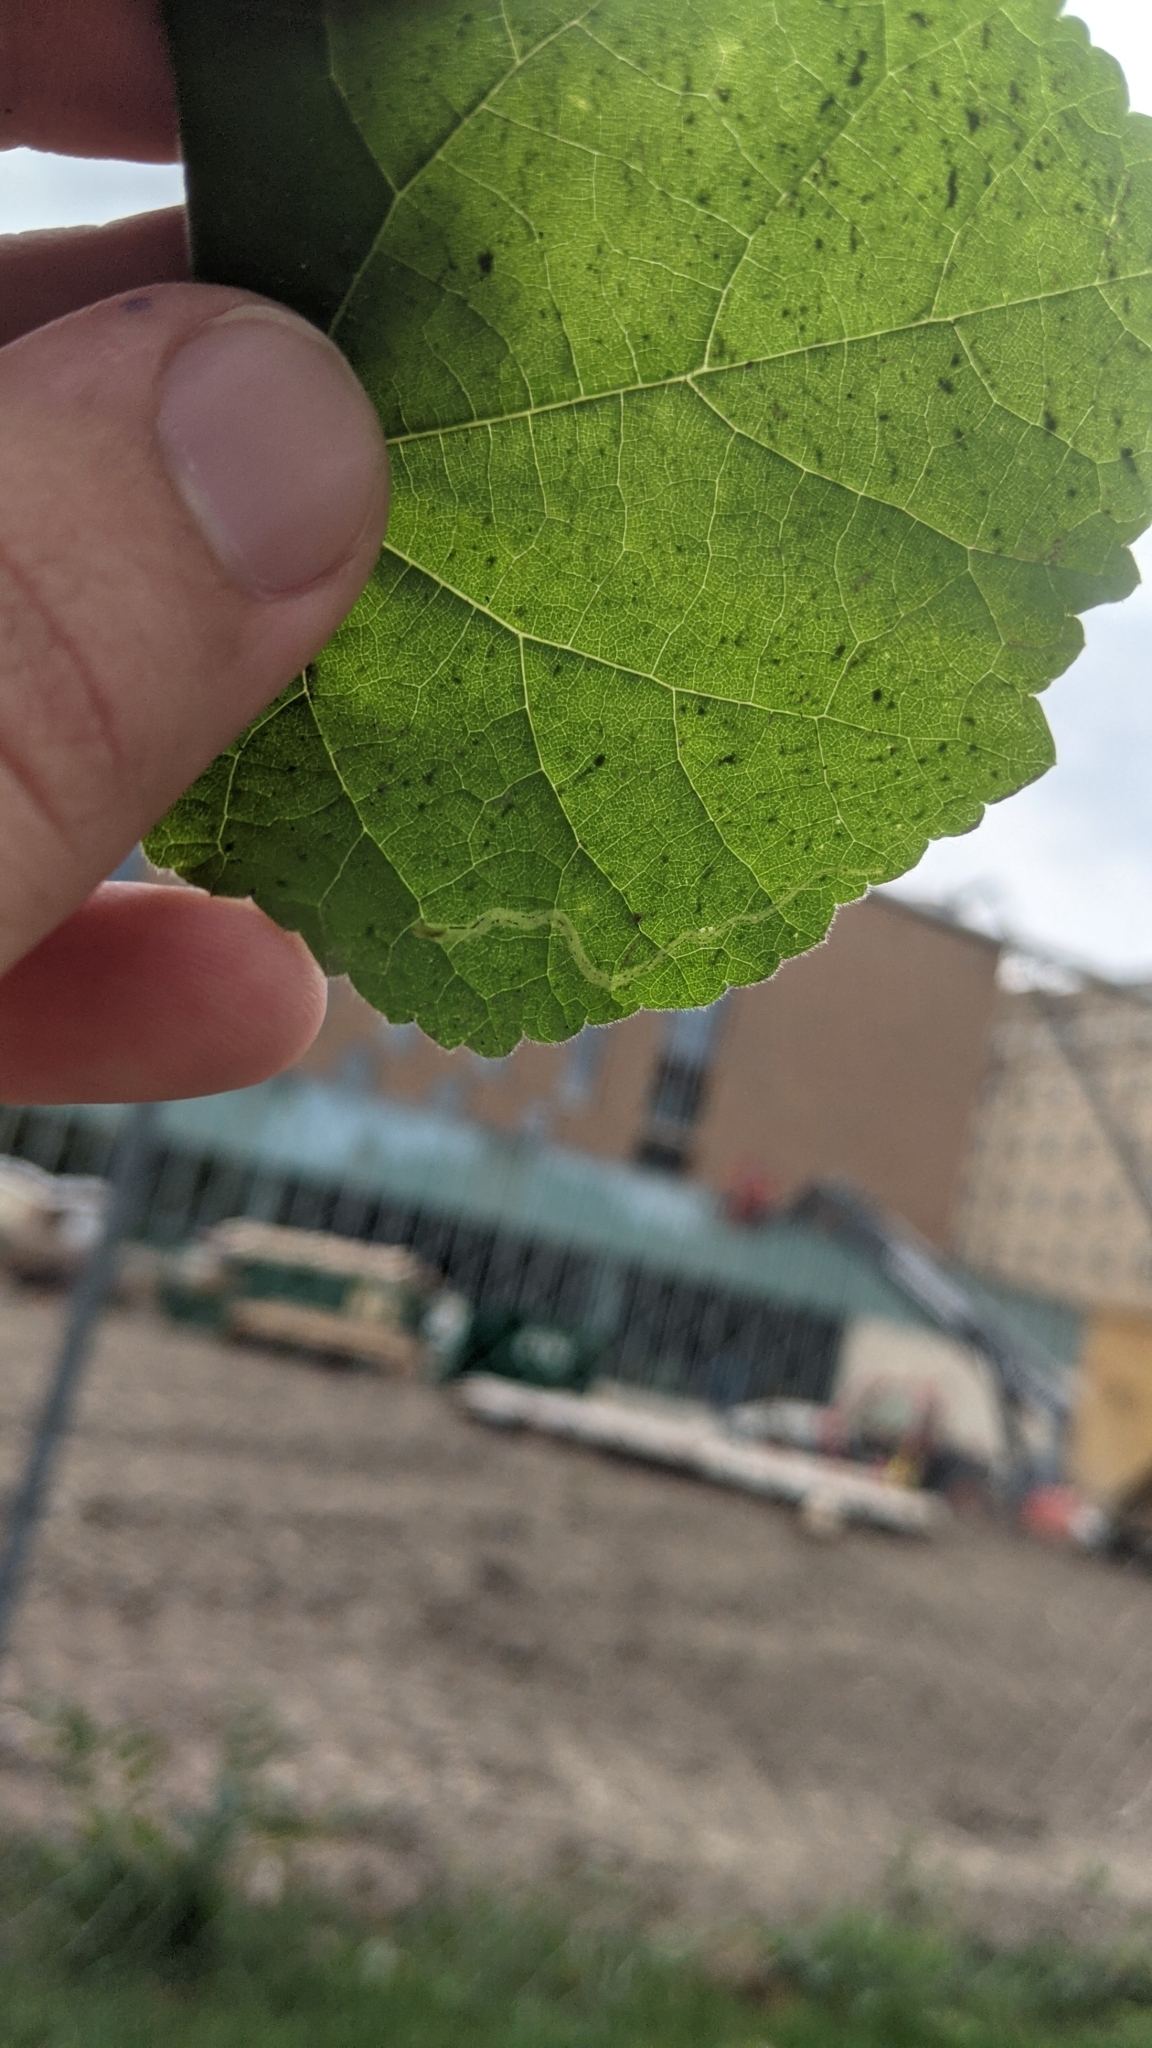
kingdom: Animalia
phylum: Arthropoda
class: Insecta
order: Diptera
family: Agromyzidae
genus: Calycomyza
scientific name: Calycomyza malvae
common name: Mallow leaf miner
